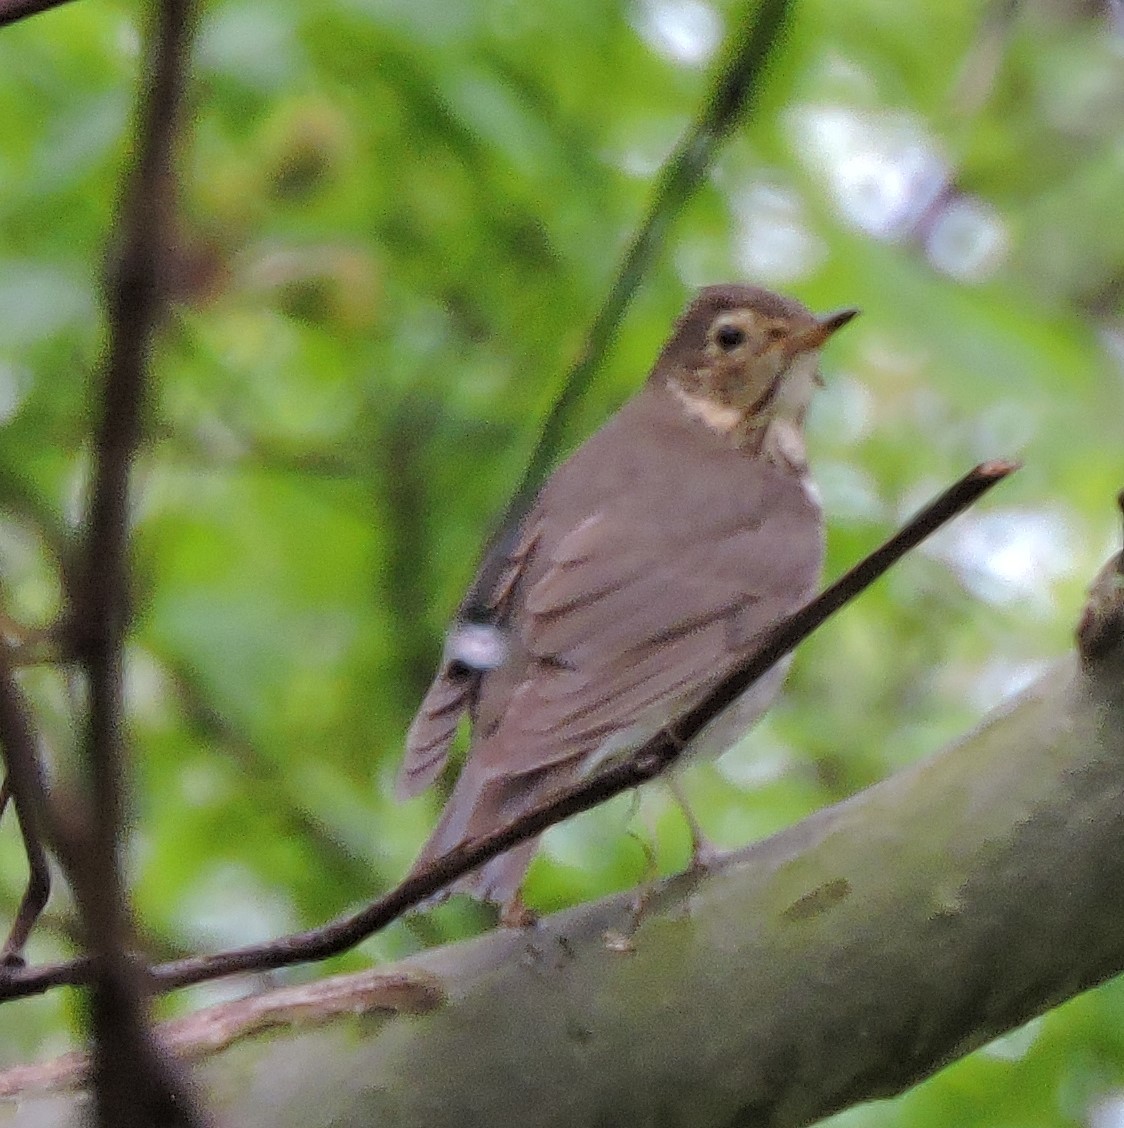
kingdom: Animalia
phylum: Chordata
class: Aves
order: Passeriformes
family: Turdidae
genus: Catharus
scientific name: Catharus ustulatus
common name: Swainson's thrush
